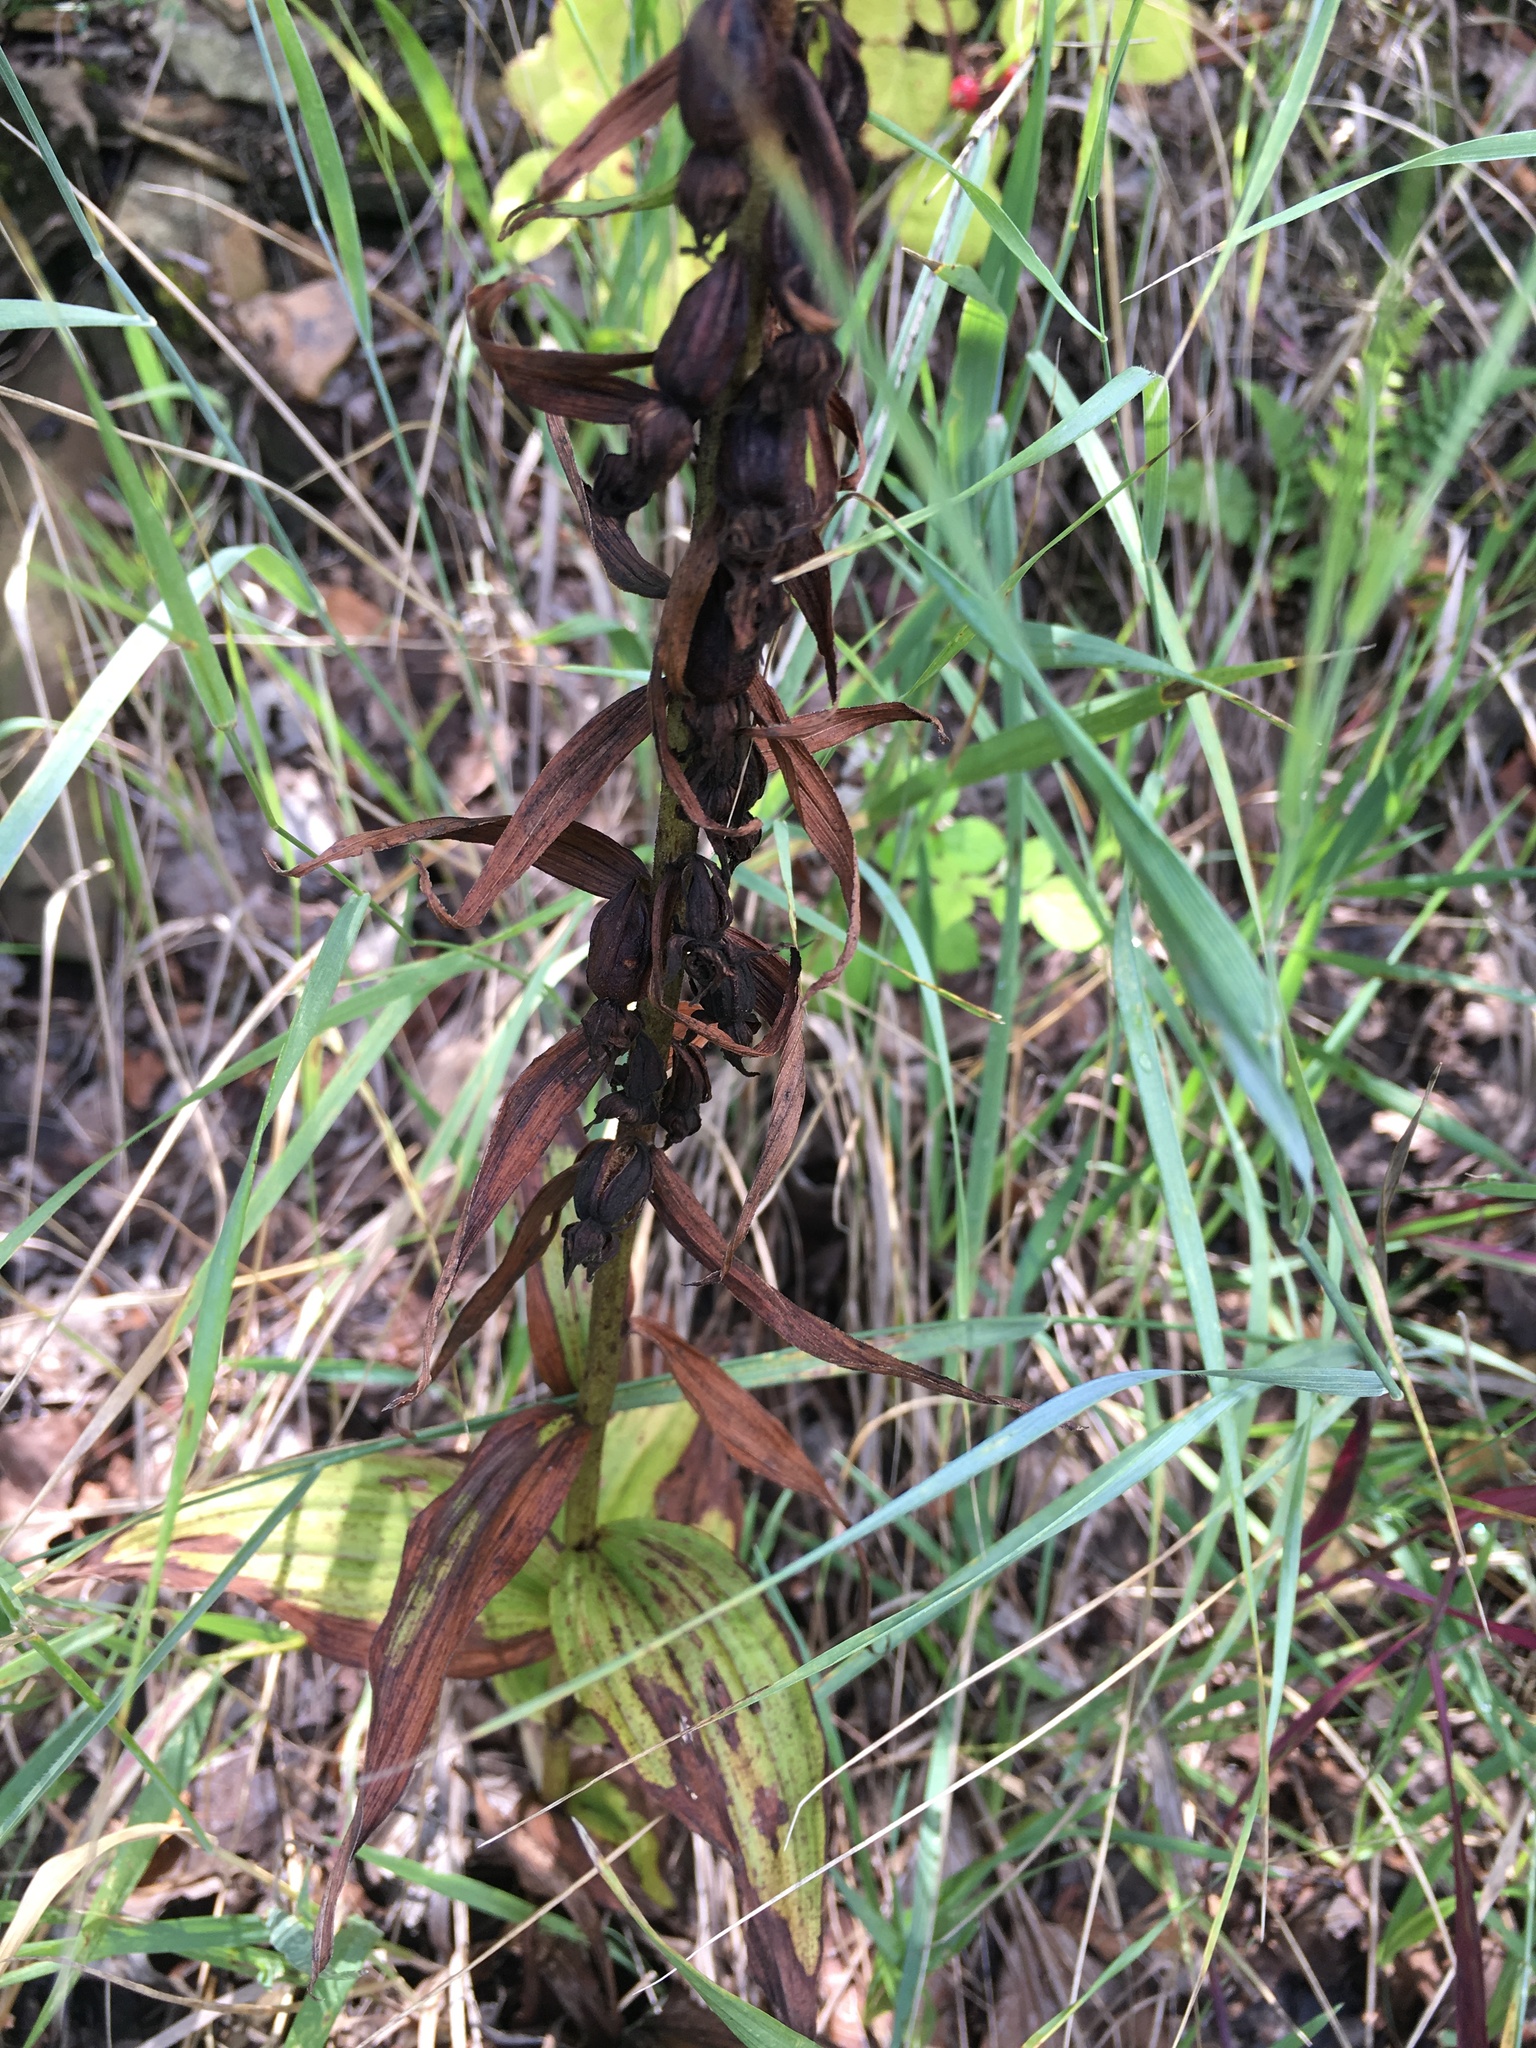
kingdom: Plantae
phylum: Tracheophyta
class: Liliopsida
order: Asparagales
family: Orchidaceae
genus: Epipactis
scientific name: Epipactis helleborine
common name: Broad-leaved helleborine
